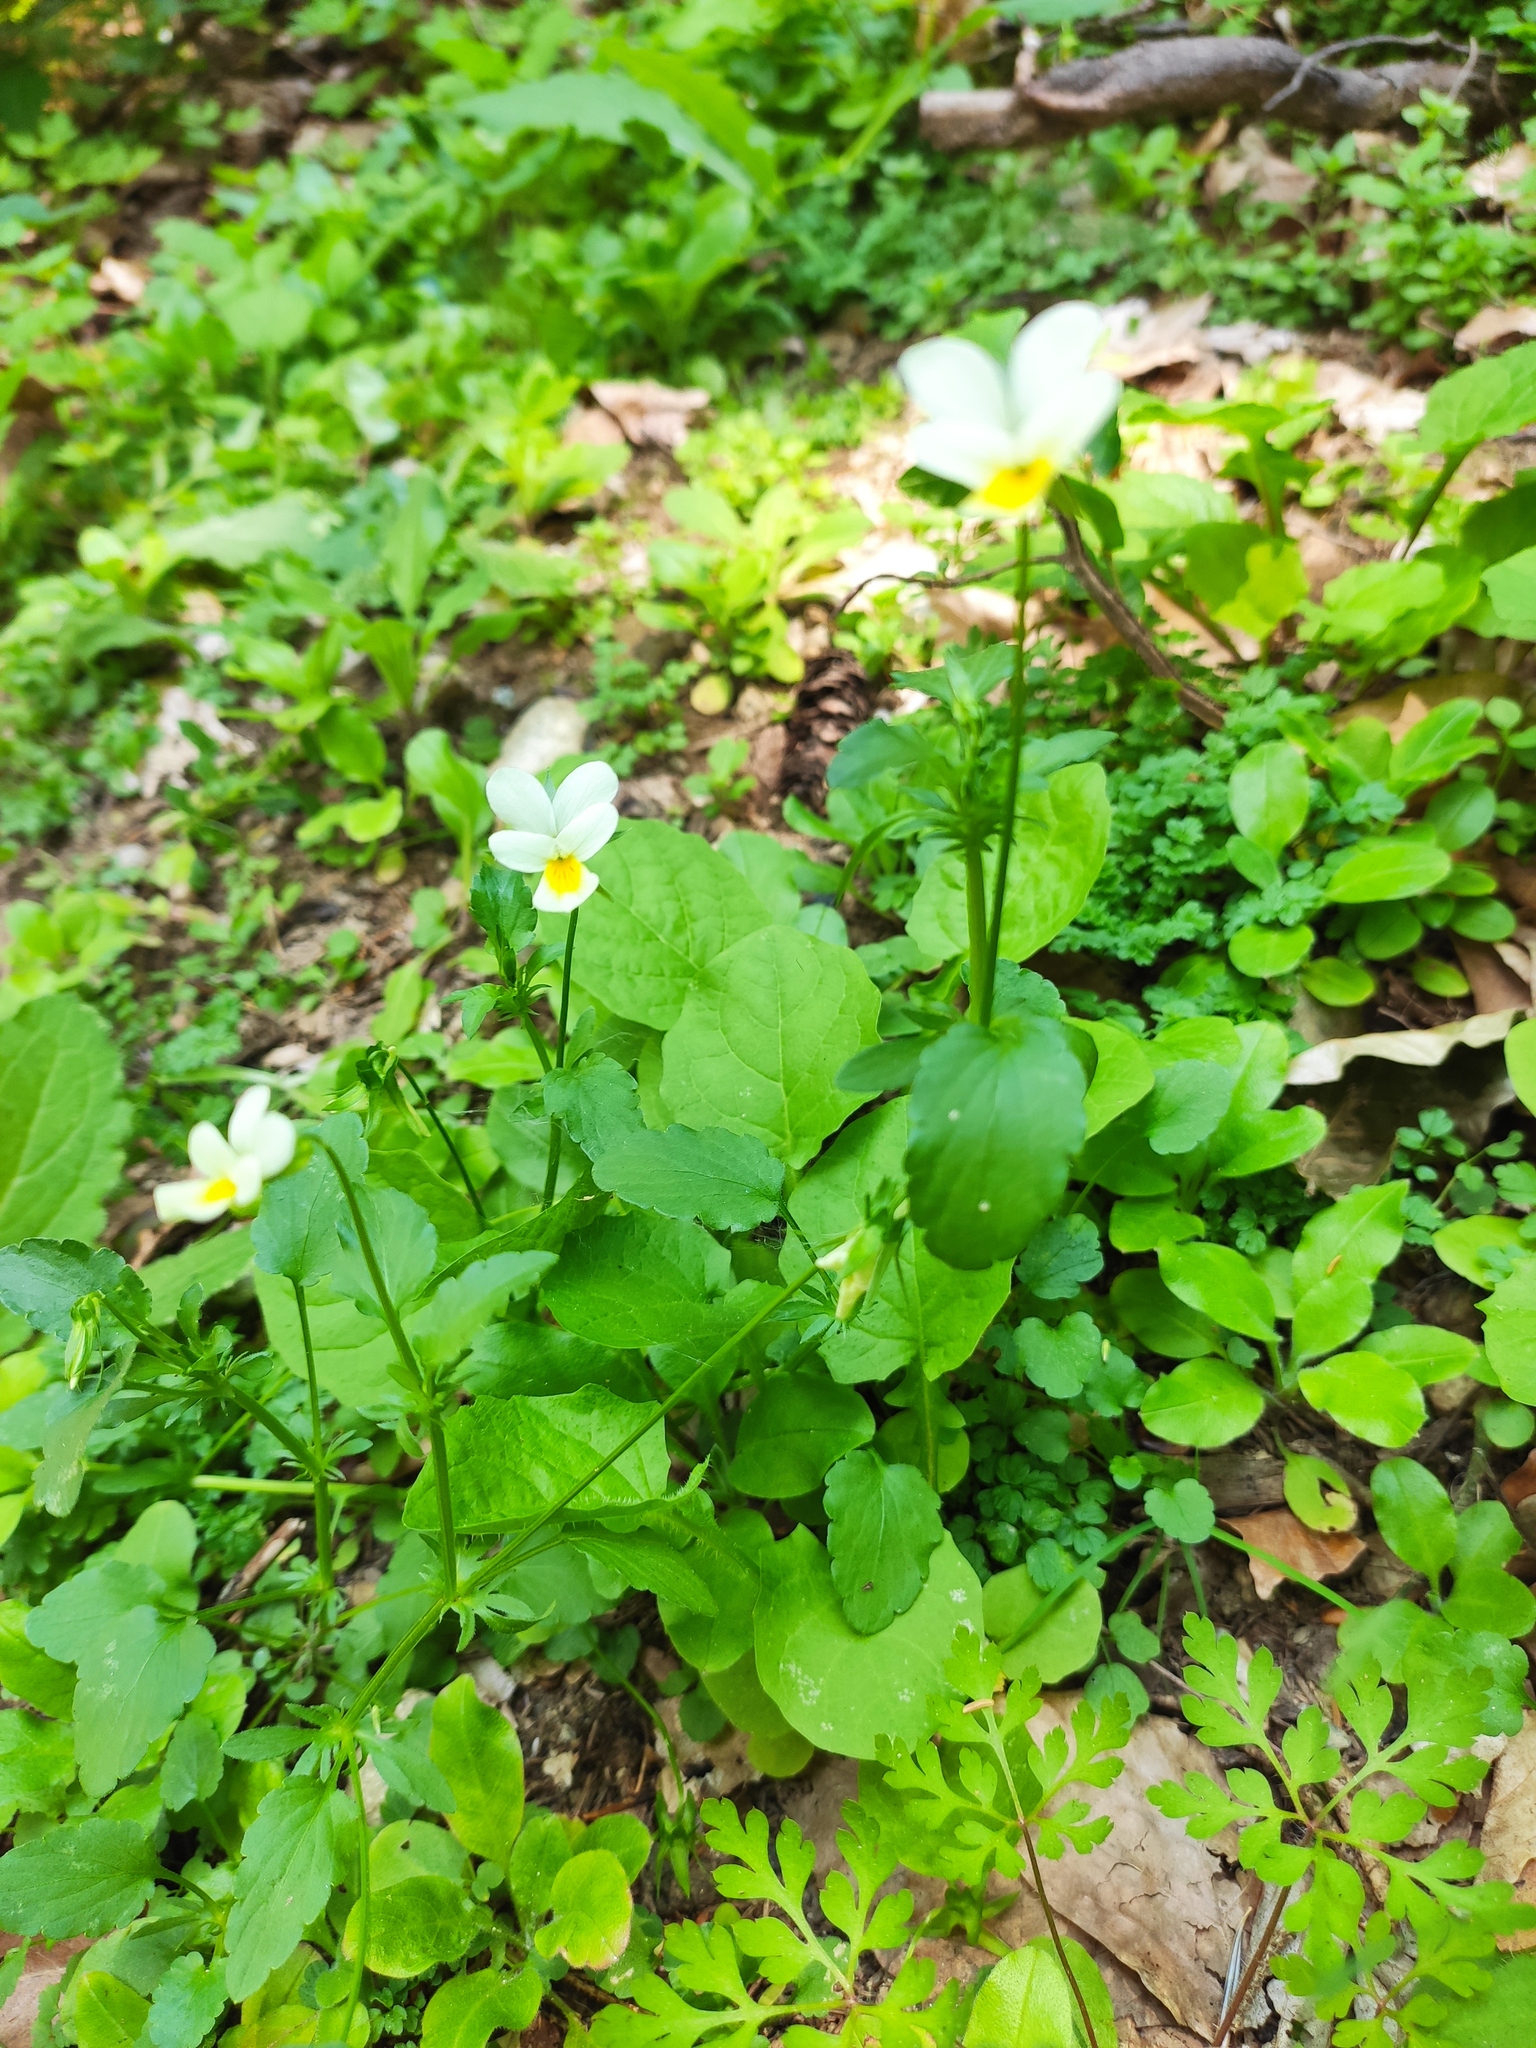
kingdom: Plantae
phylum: Tracheophyta
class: Magnoliopsida
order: Malpighiales
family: Violaceae
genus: Viola
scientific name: Viola arvensis
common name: Field pansy
